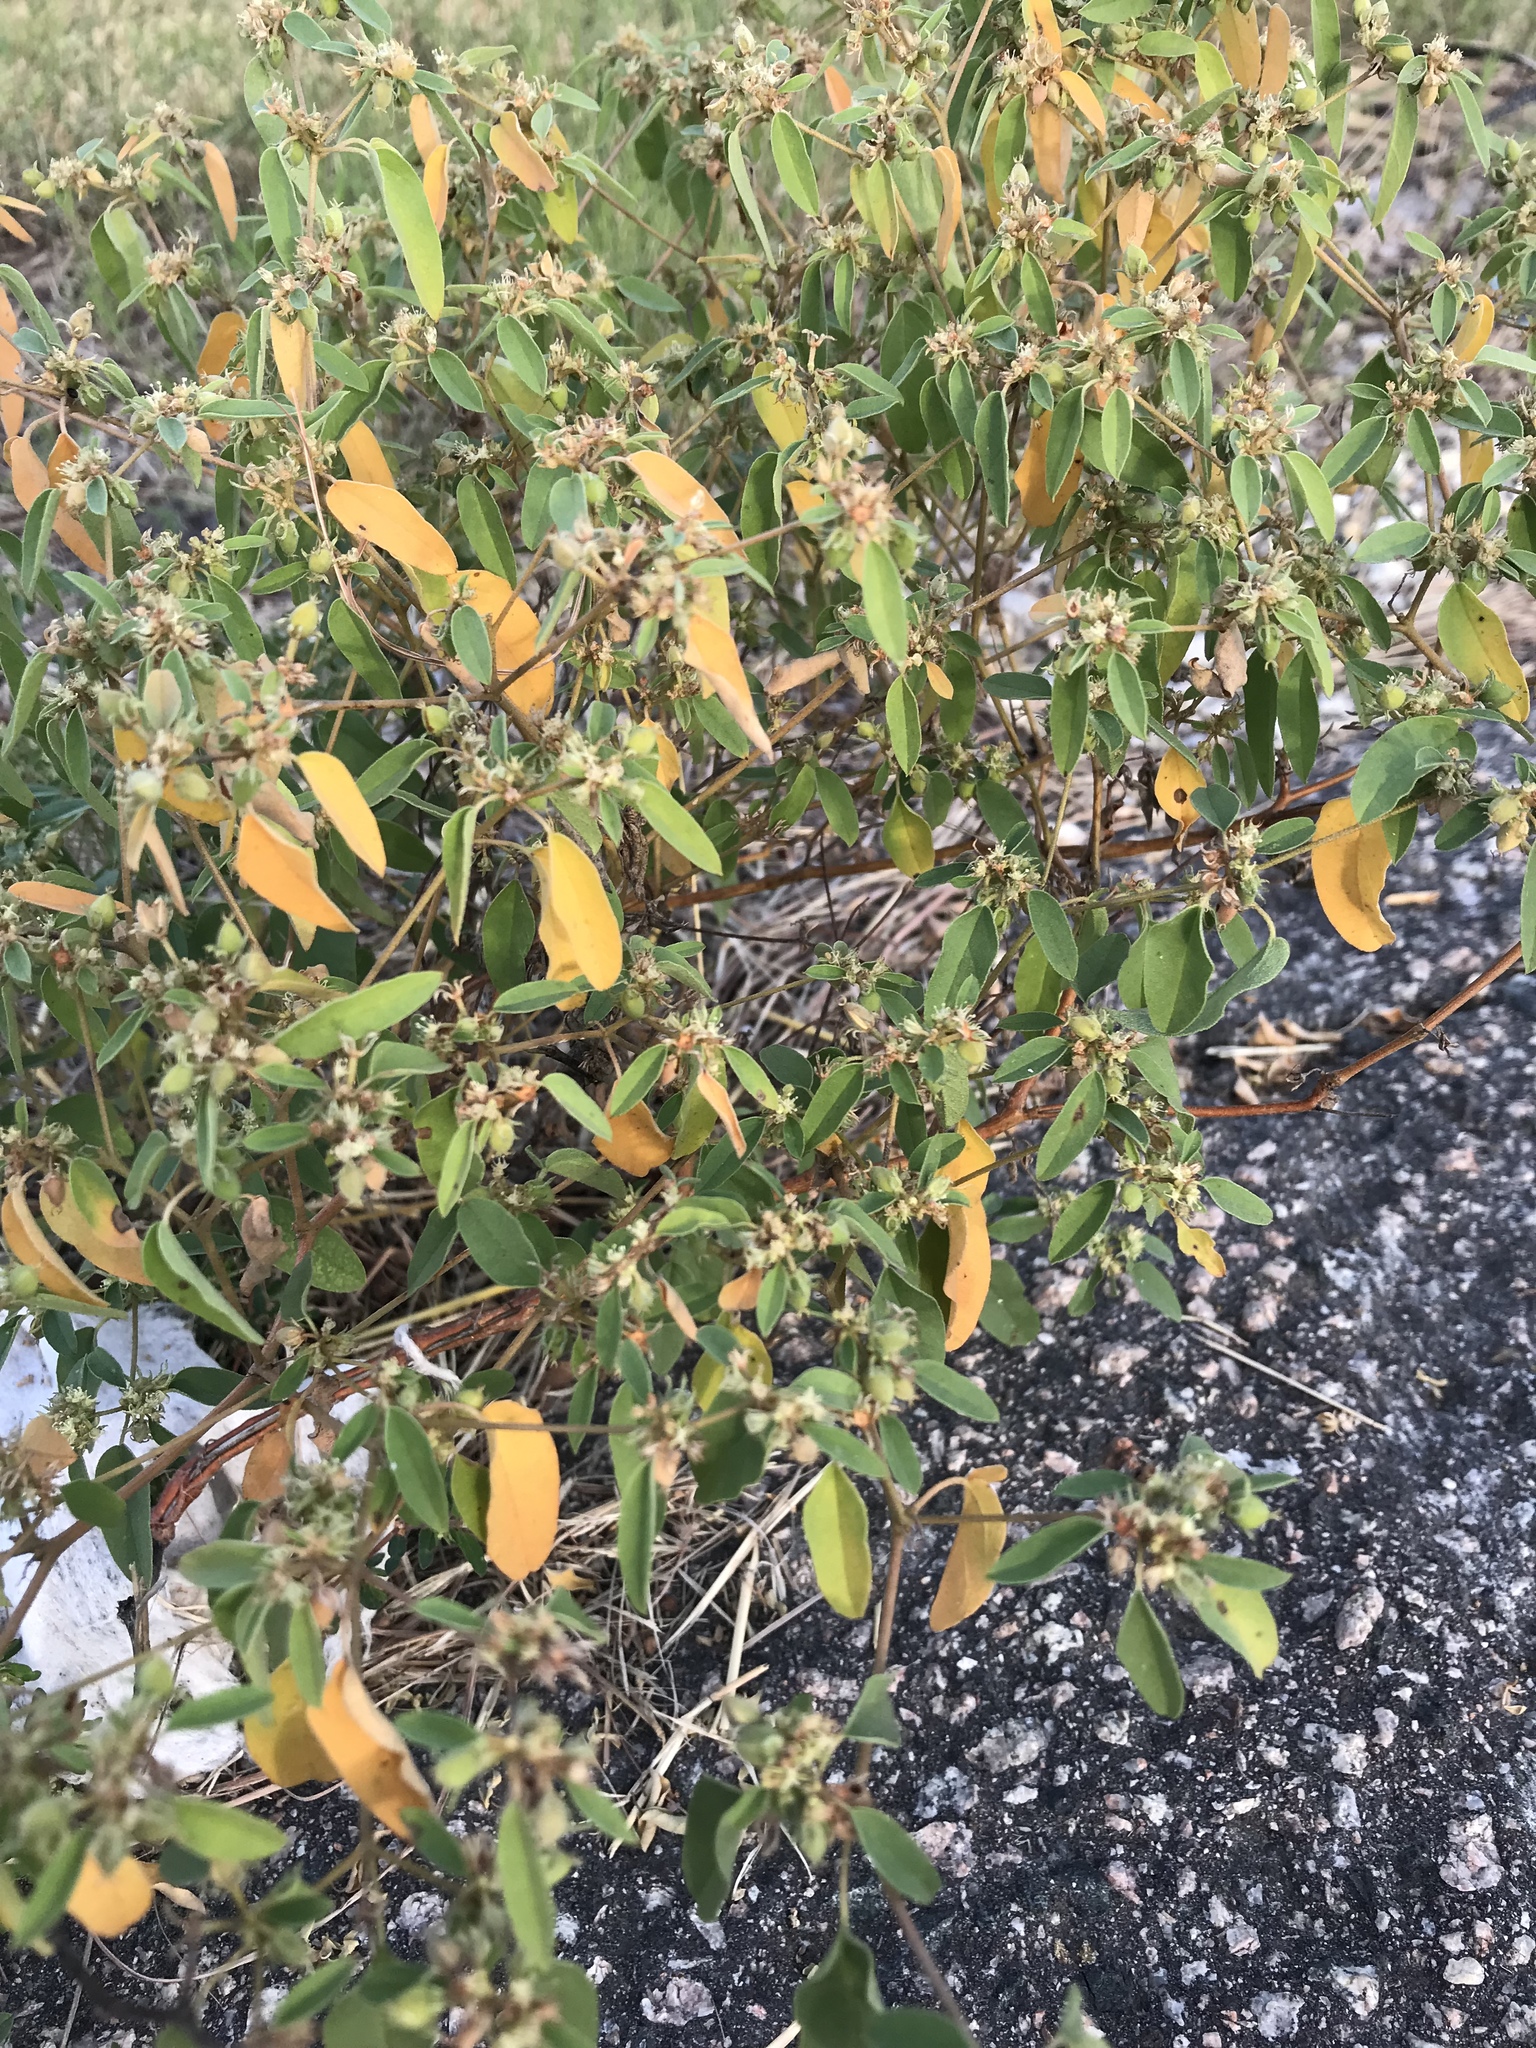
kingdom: Plantae
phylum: Tracheophyta
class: Magnoliopsida
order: Malpighiales
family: Euphorbiaceae
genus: Croton
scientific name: Croton monanthogynus
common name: One-seed croton
